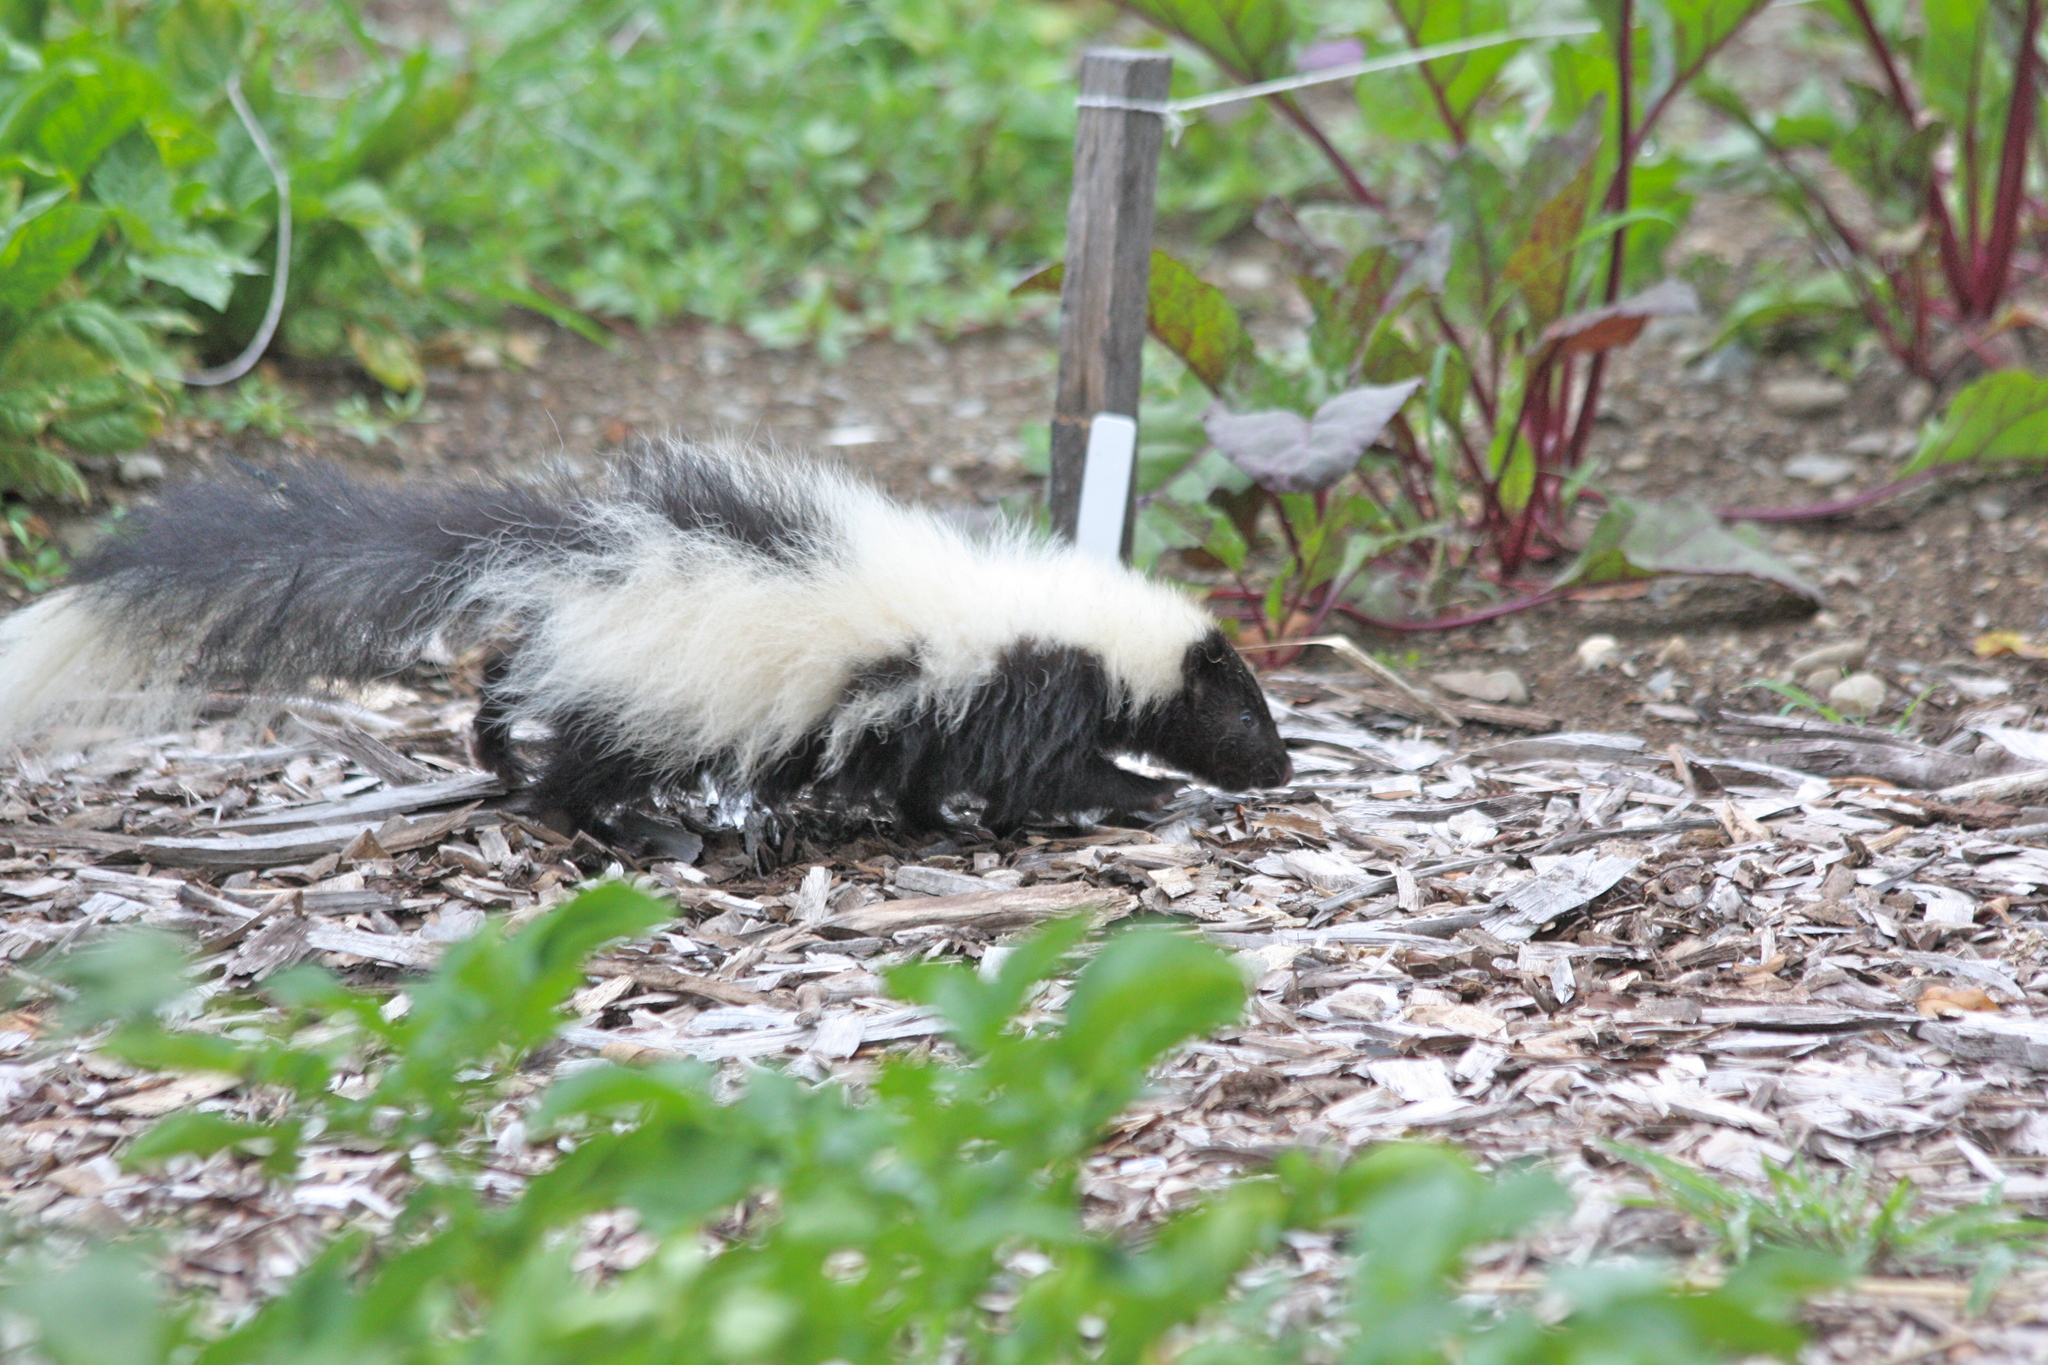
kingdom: Animalia
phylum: Chordata
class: Mammalia
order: Carnivora
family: Mephitidae
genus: Mephitis
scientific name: Mephitis mephitis
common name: Striped skunk
